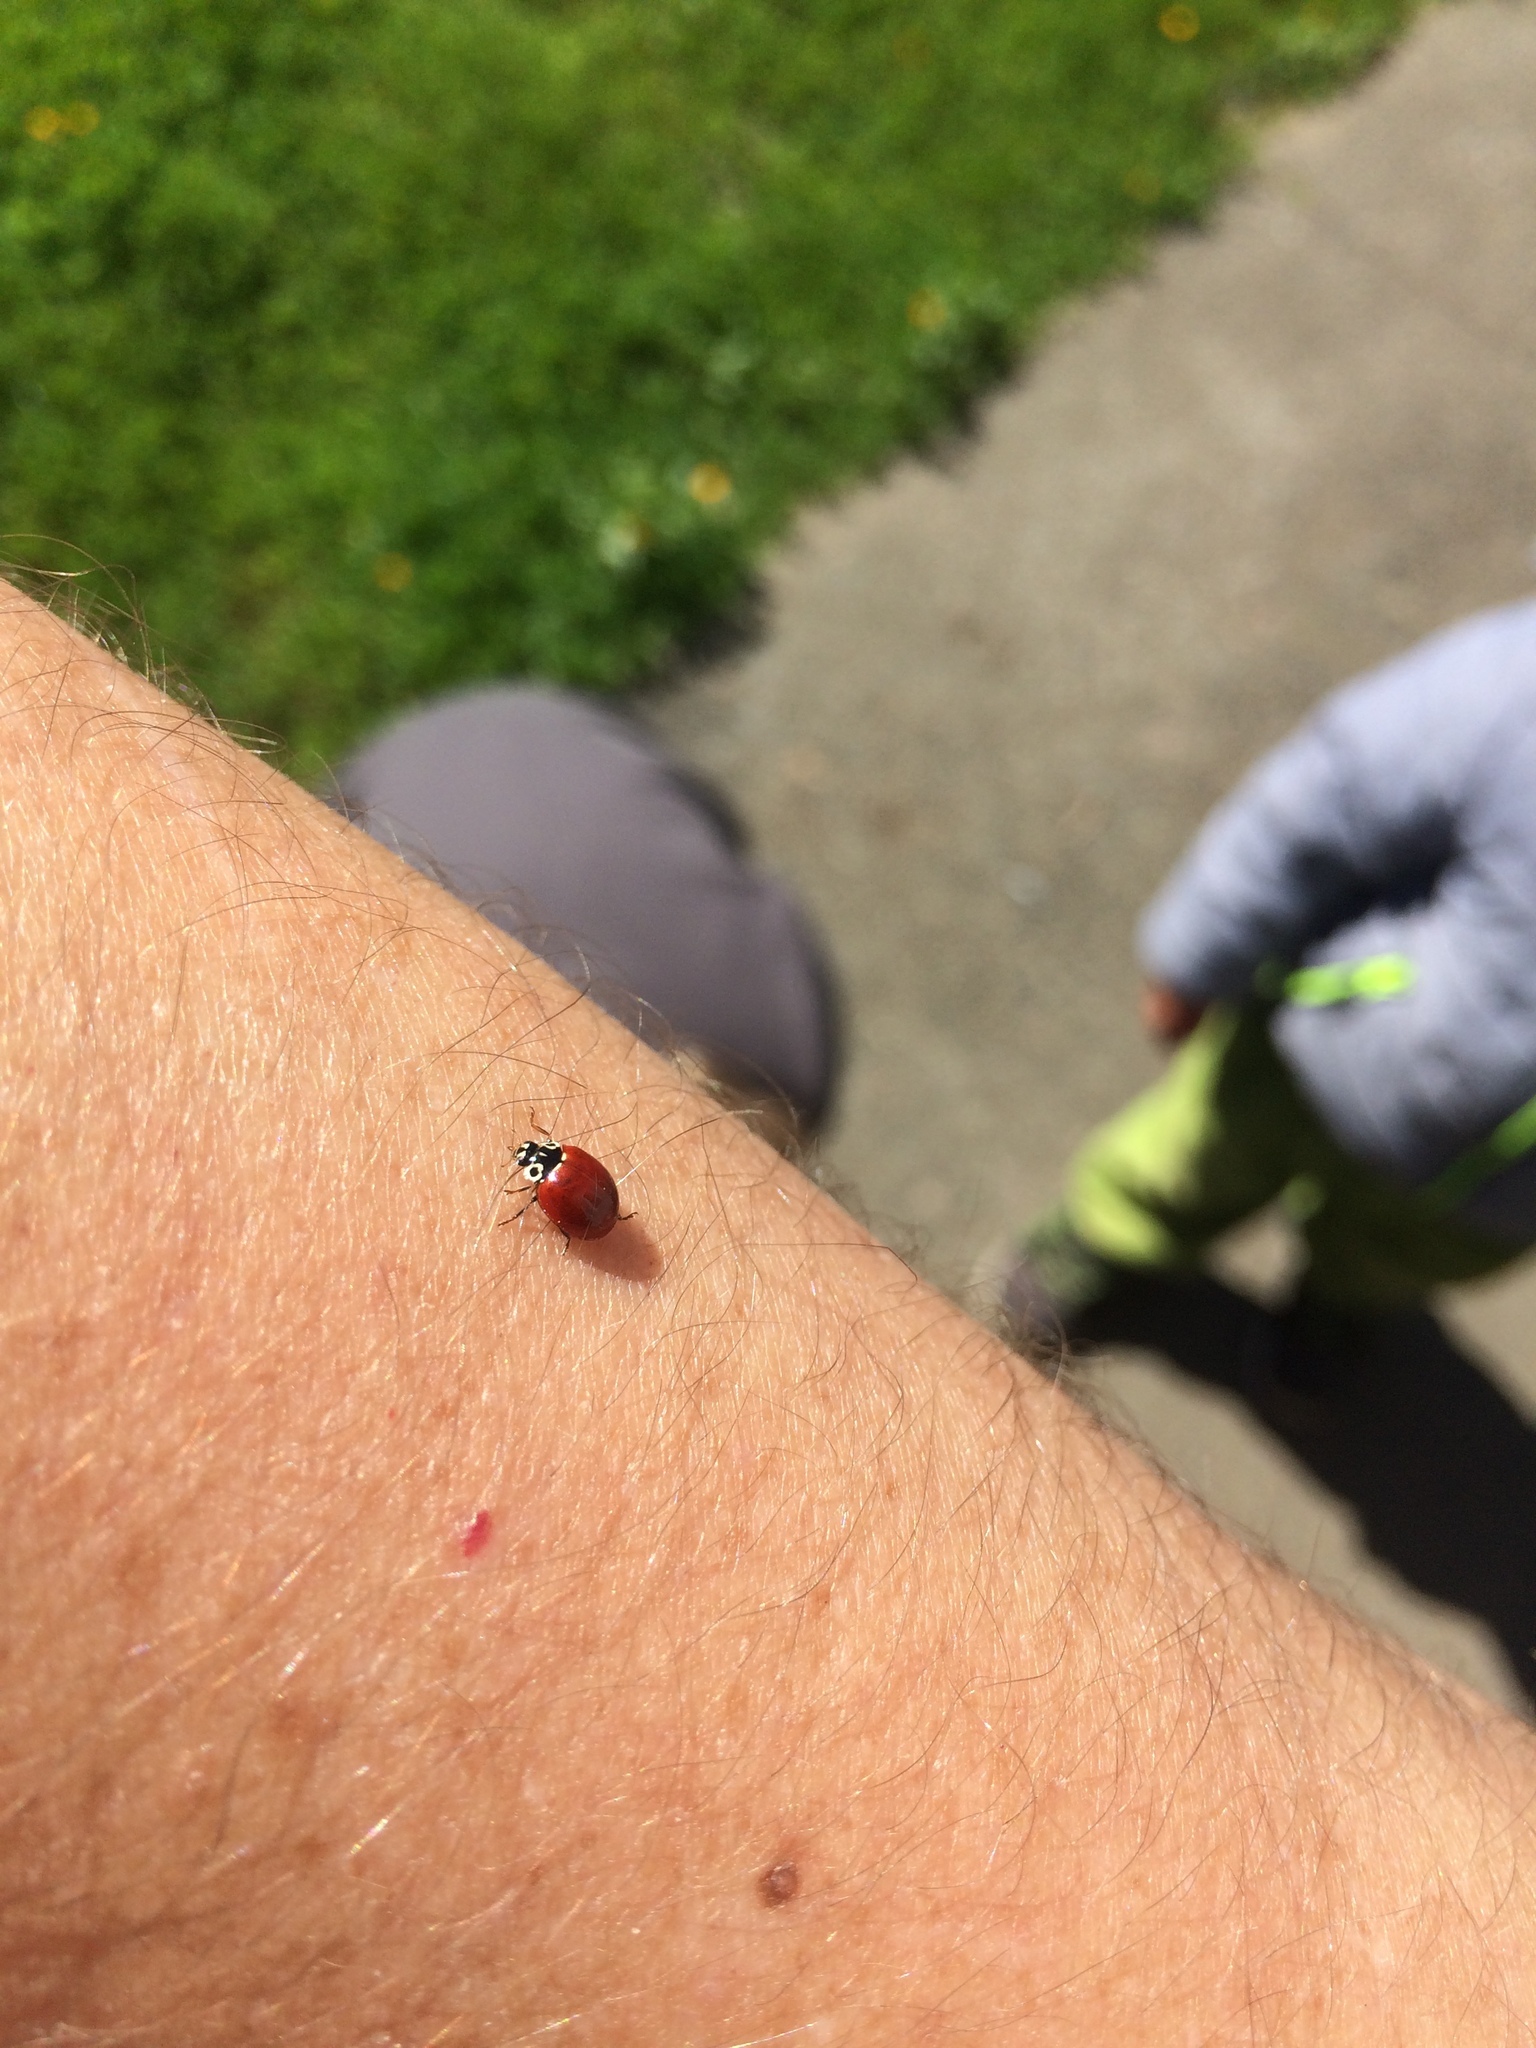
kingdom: Animalia
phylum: Arthropoda
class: Insecta
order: Coleoptera
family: Coccinellidae
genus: Cycloneda
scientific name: Cycloneda polita
